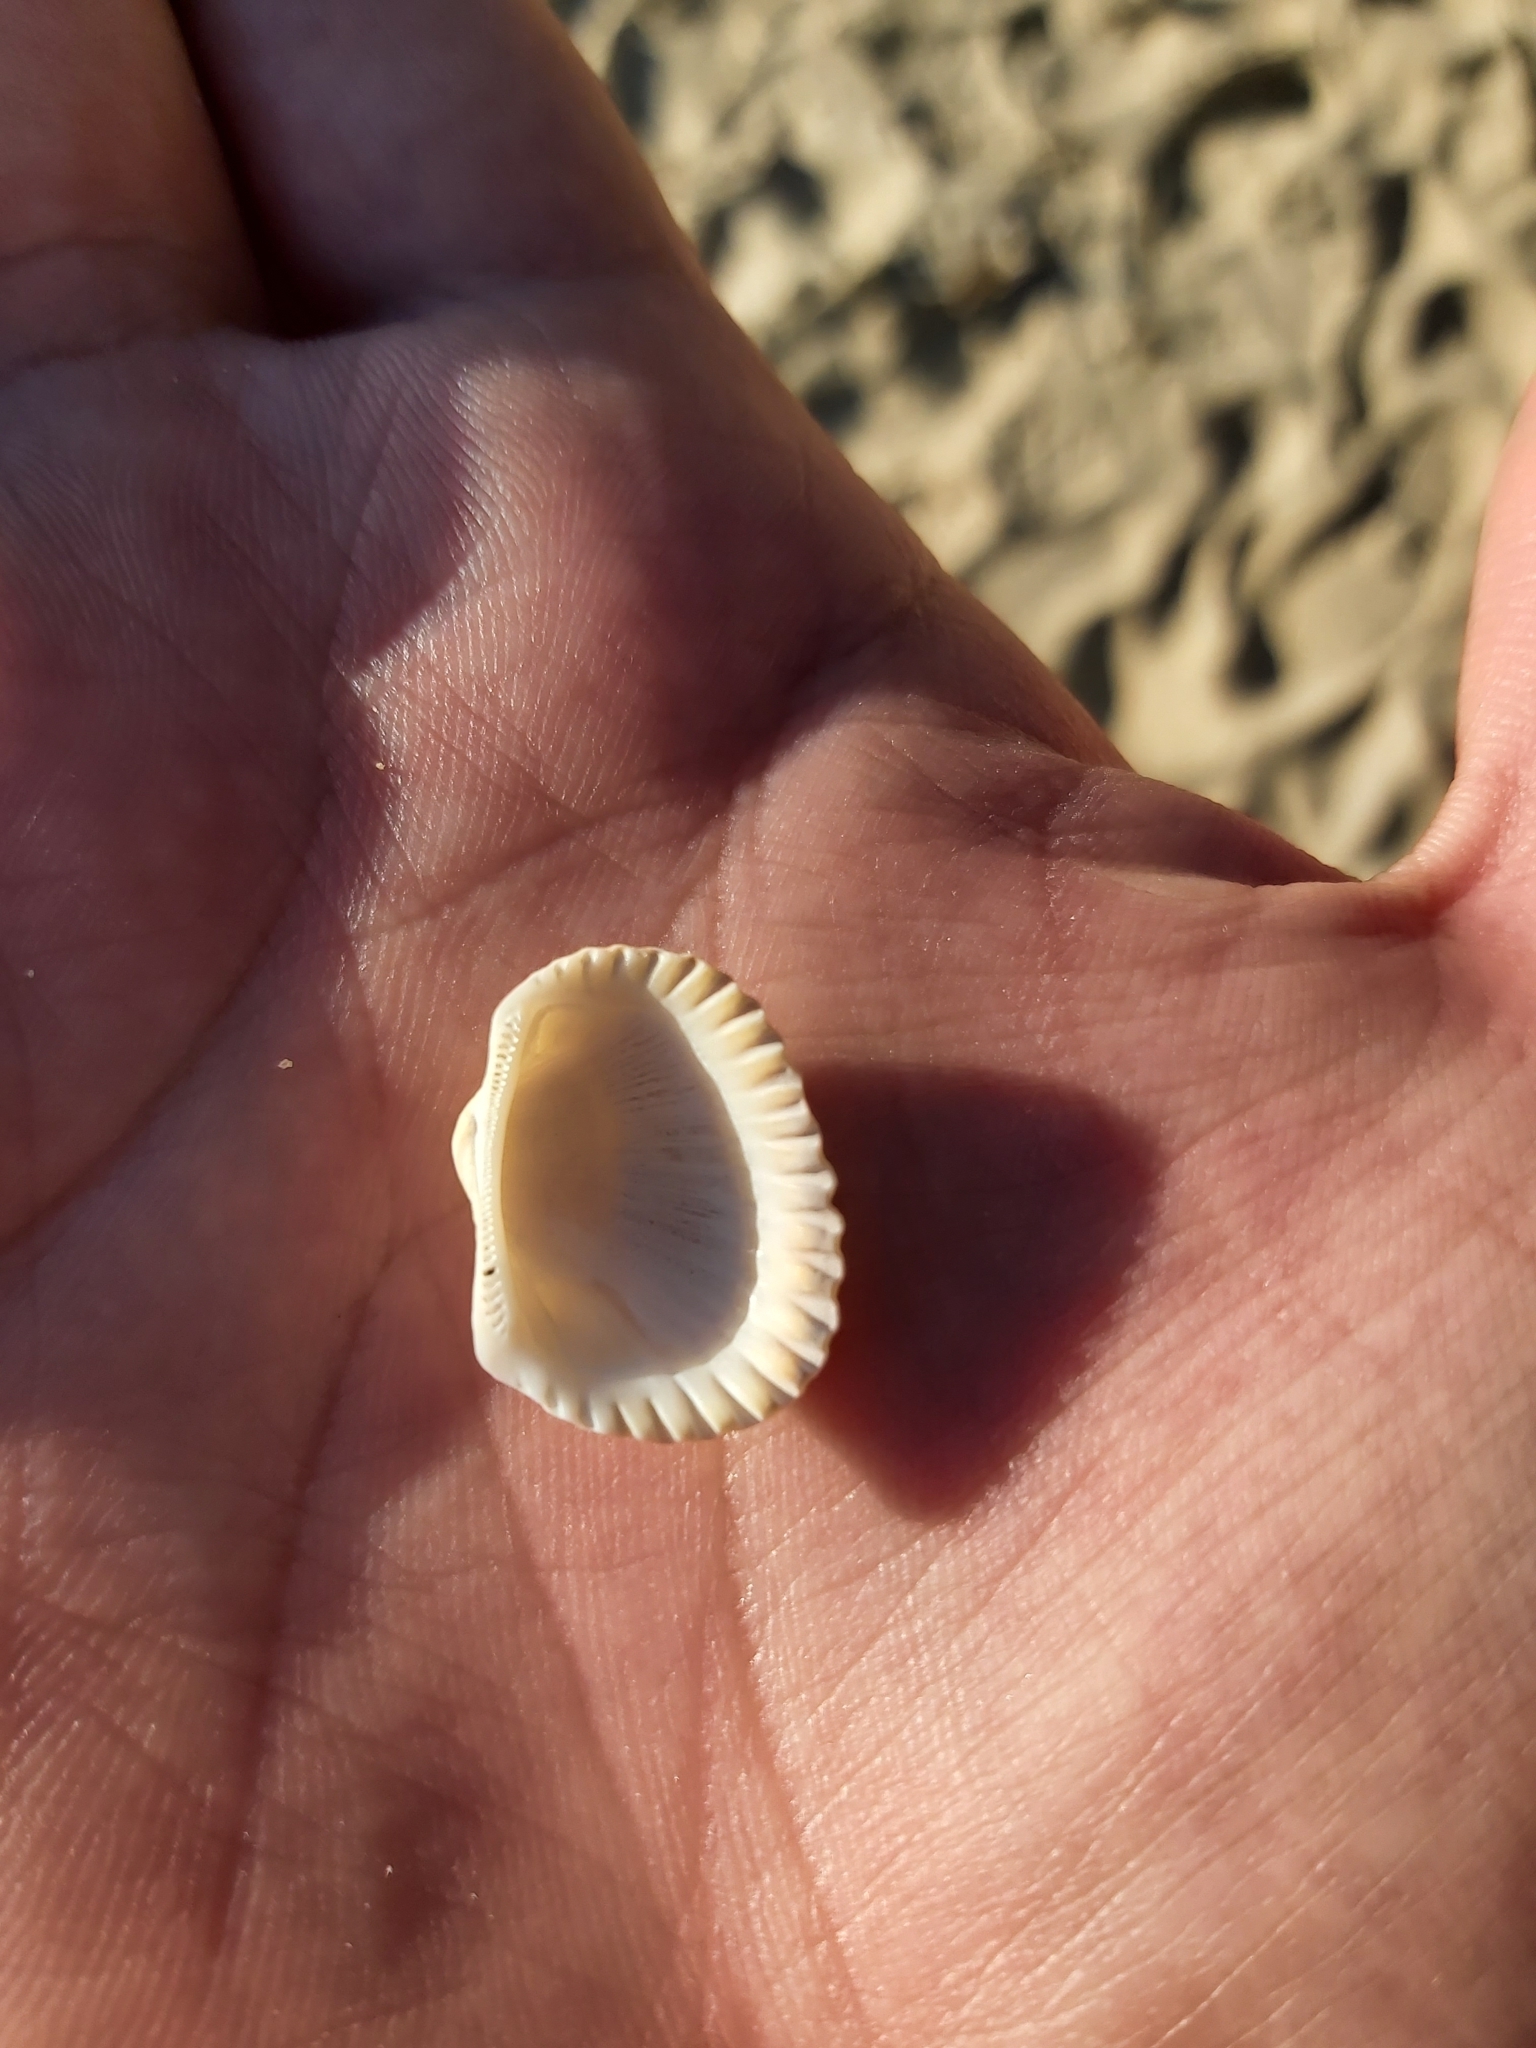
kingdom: Animalia
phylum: Mollusca
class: Bivalvia
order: Arcida
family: Arcidae
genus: Anadara
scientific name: Anadara trapezia
